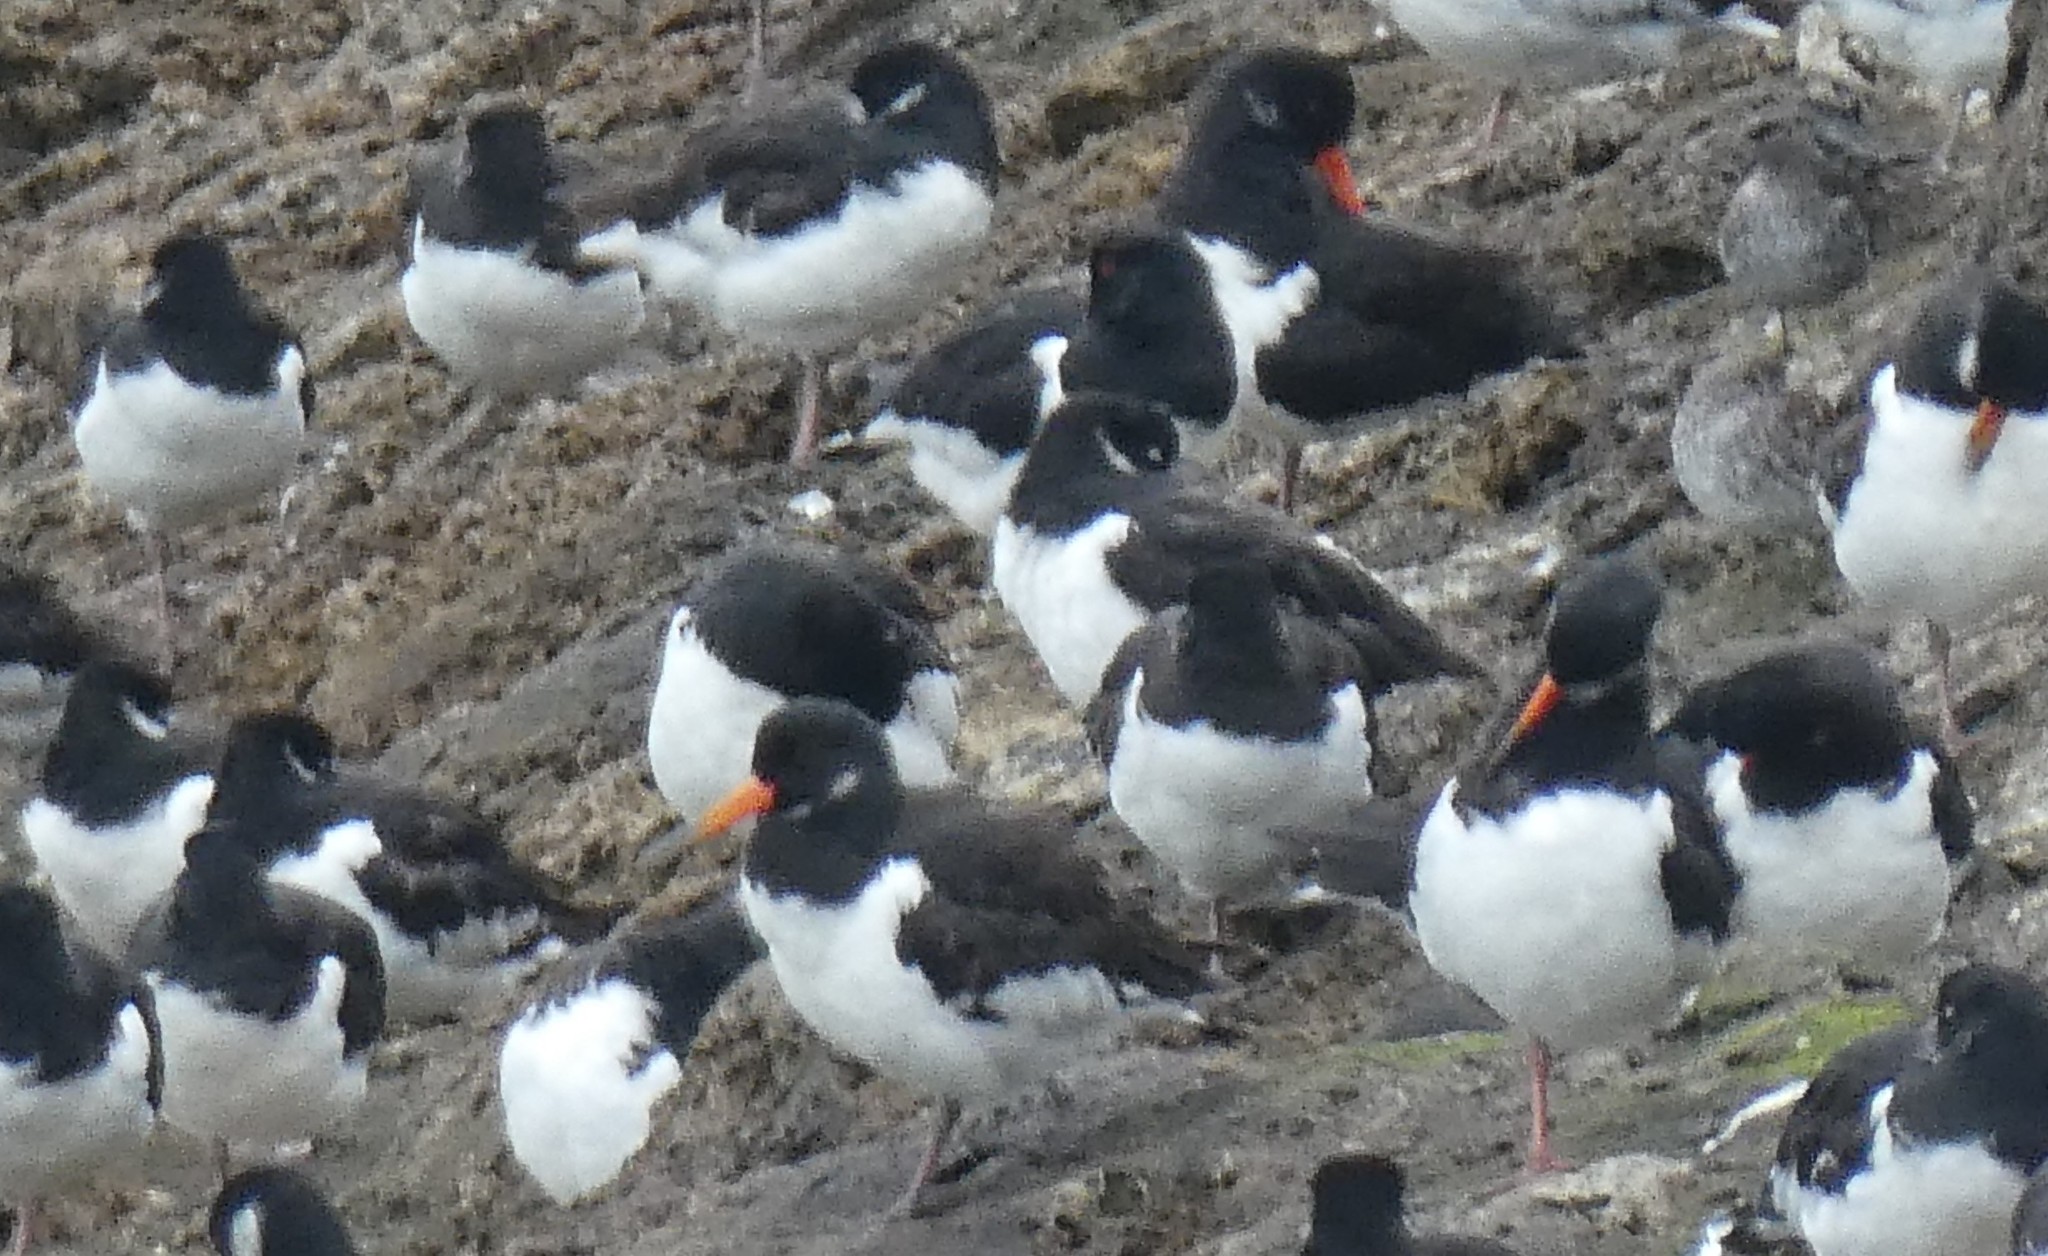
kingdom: Animalia
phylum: Chordata
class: Aves
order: Charadriiformes
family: Haematopodidae
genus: Haematopus
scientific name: Haematopus ostralegus
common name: Eurasian oystercatcher
